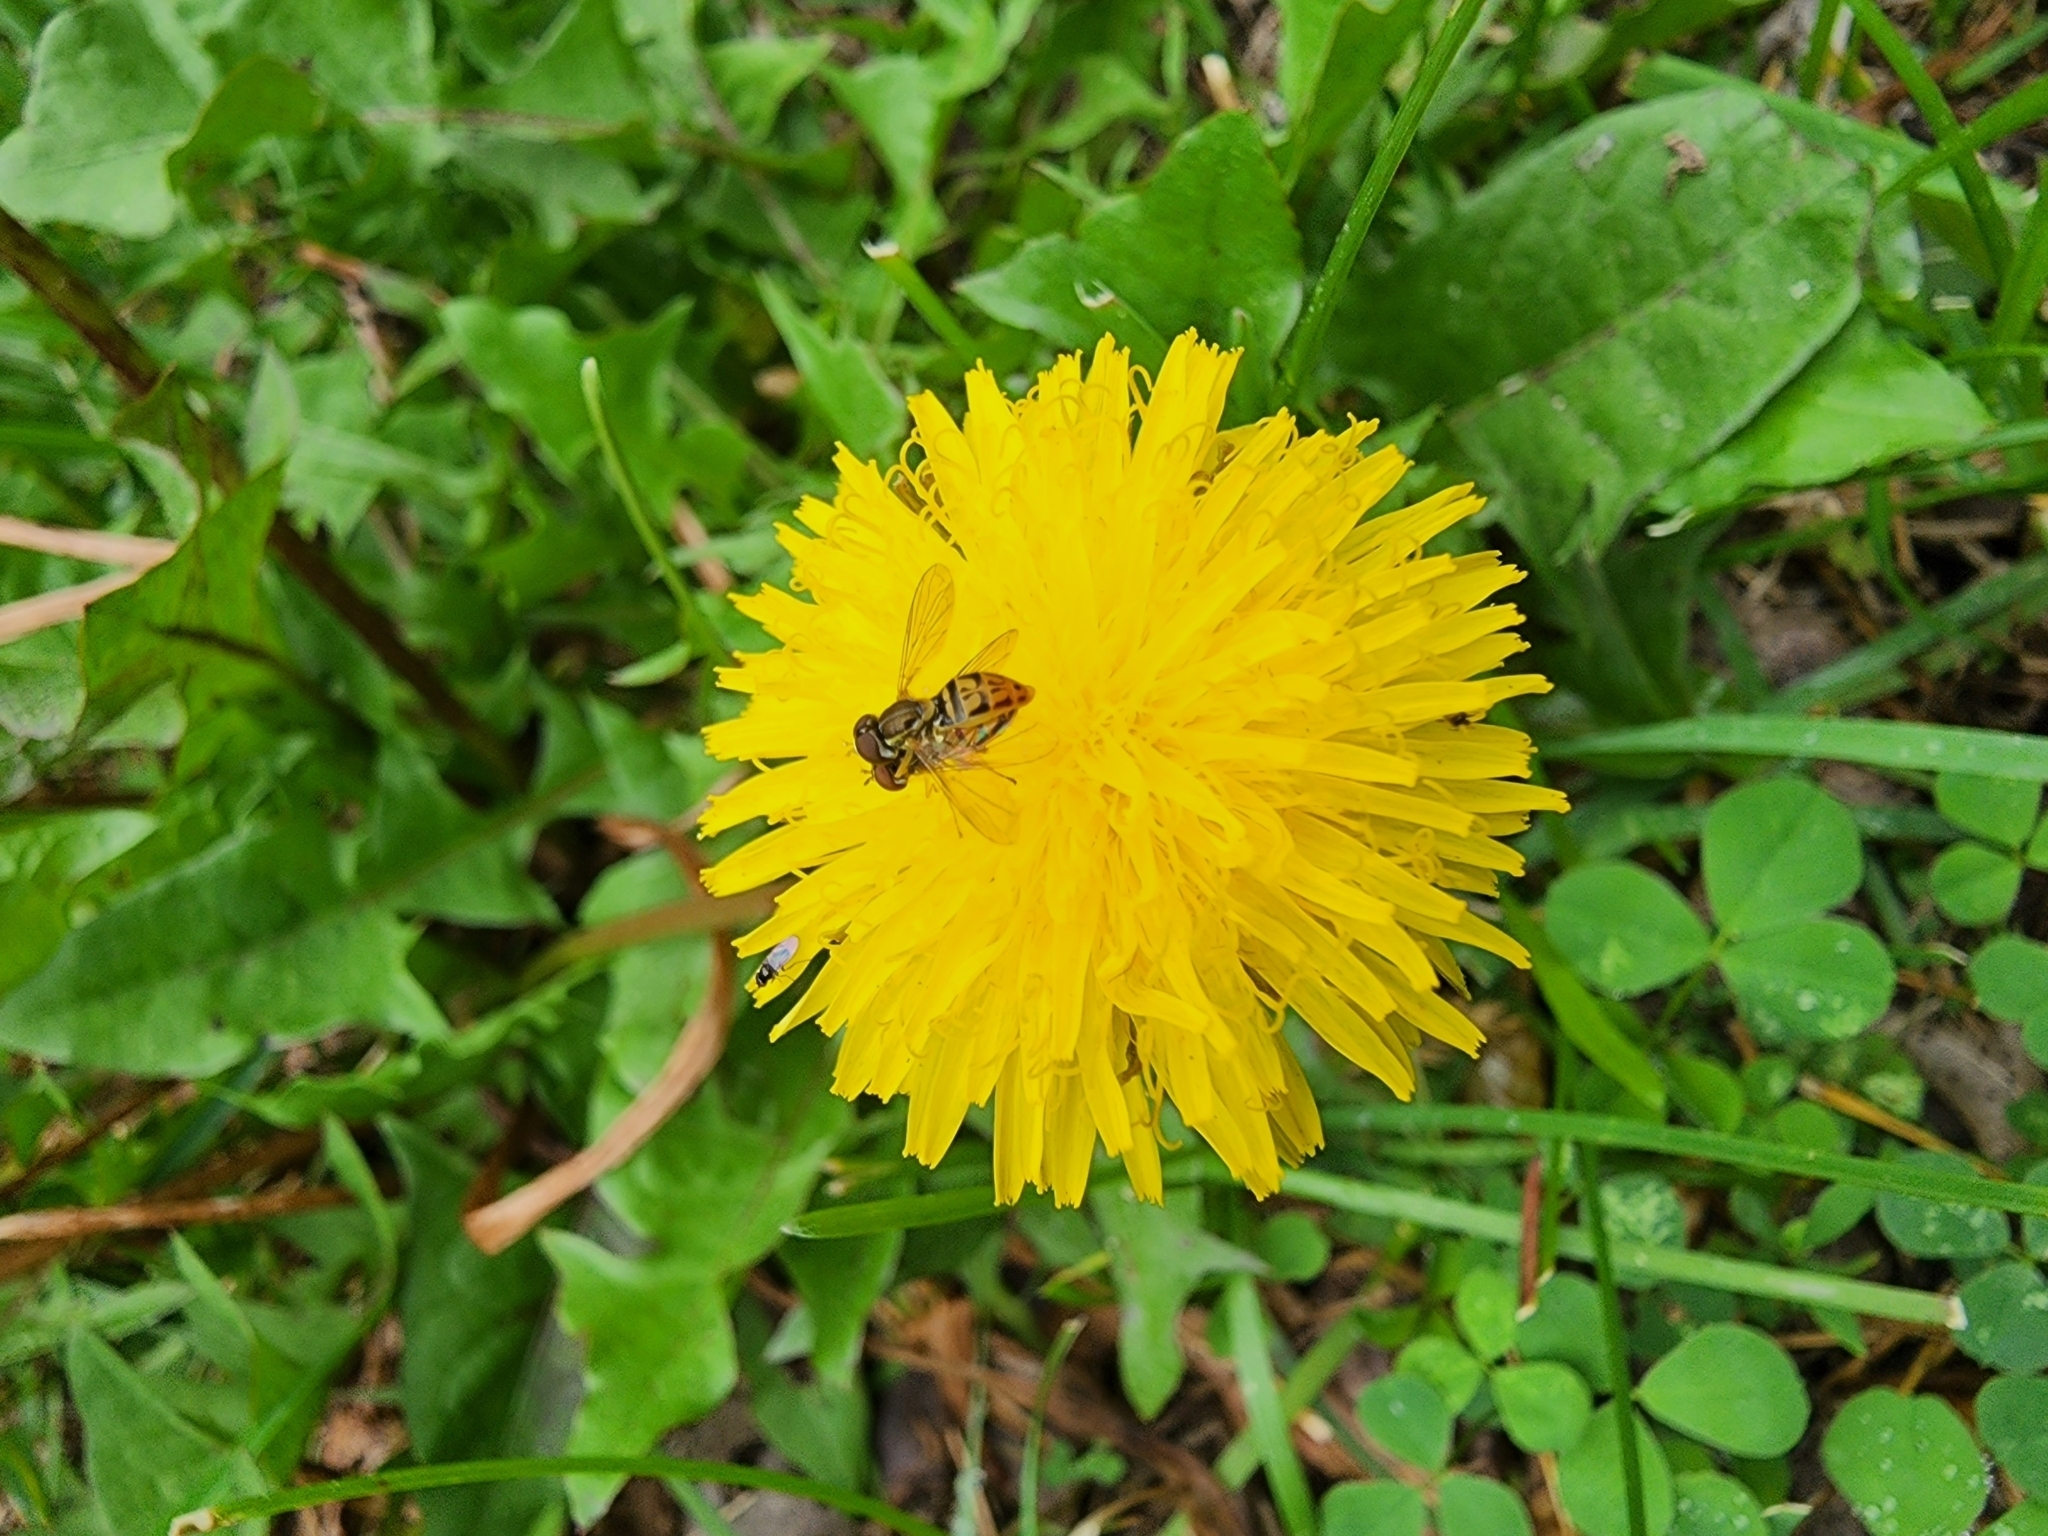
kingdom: Animalia
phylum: Arthropoda
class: Insecta
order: Diptera
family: Syrphidae
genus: Toxomerus
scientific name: Toxomerus marginatus
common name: Syrphid fly
